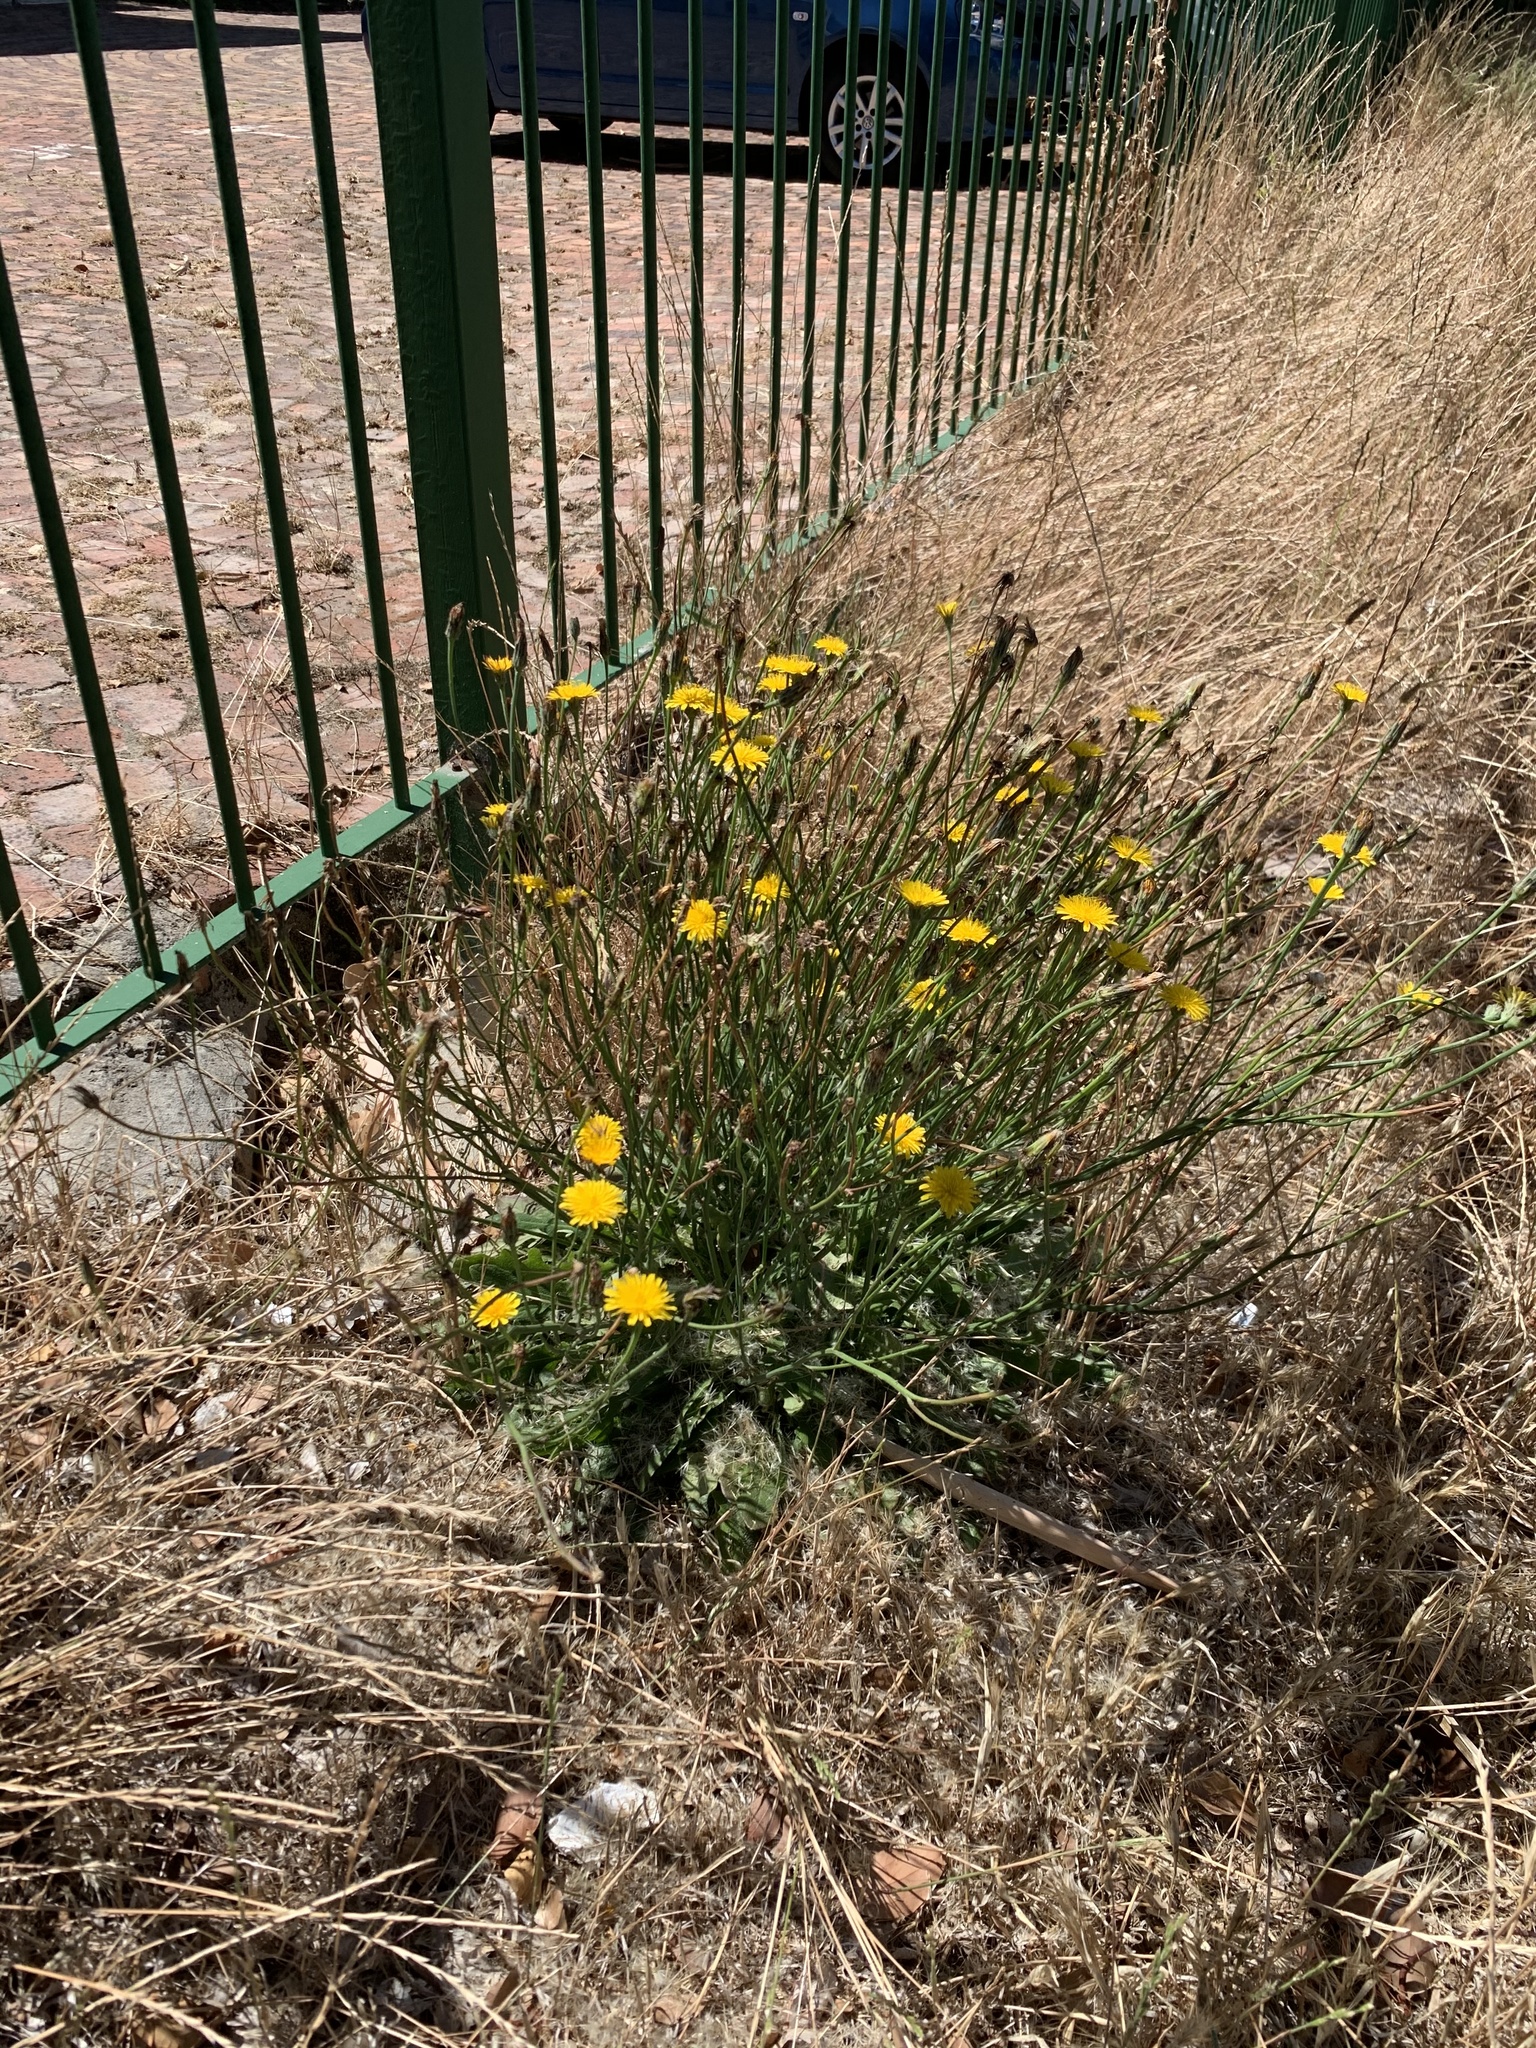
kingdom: Plantae
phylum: Tracheophyta
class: Magnoliopsida
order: Asterales
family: Asteraceae
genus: Hypochaeris
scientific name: Hypochaeris radicata
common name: Flatweed
